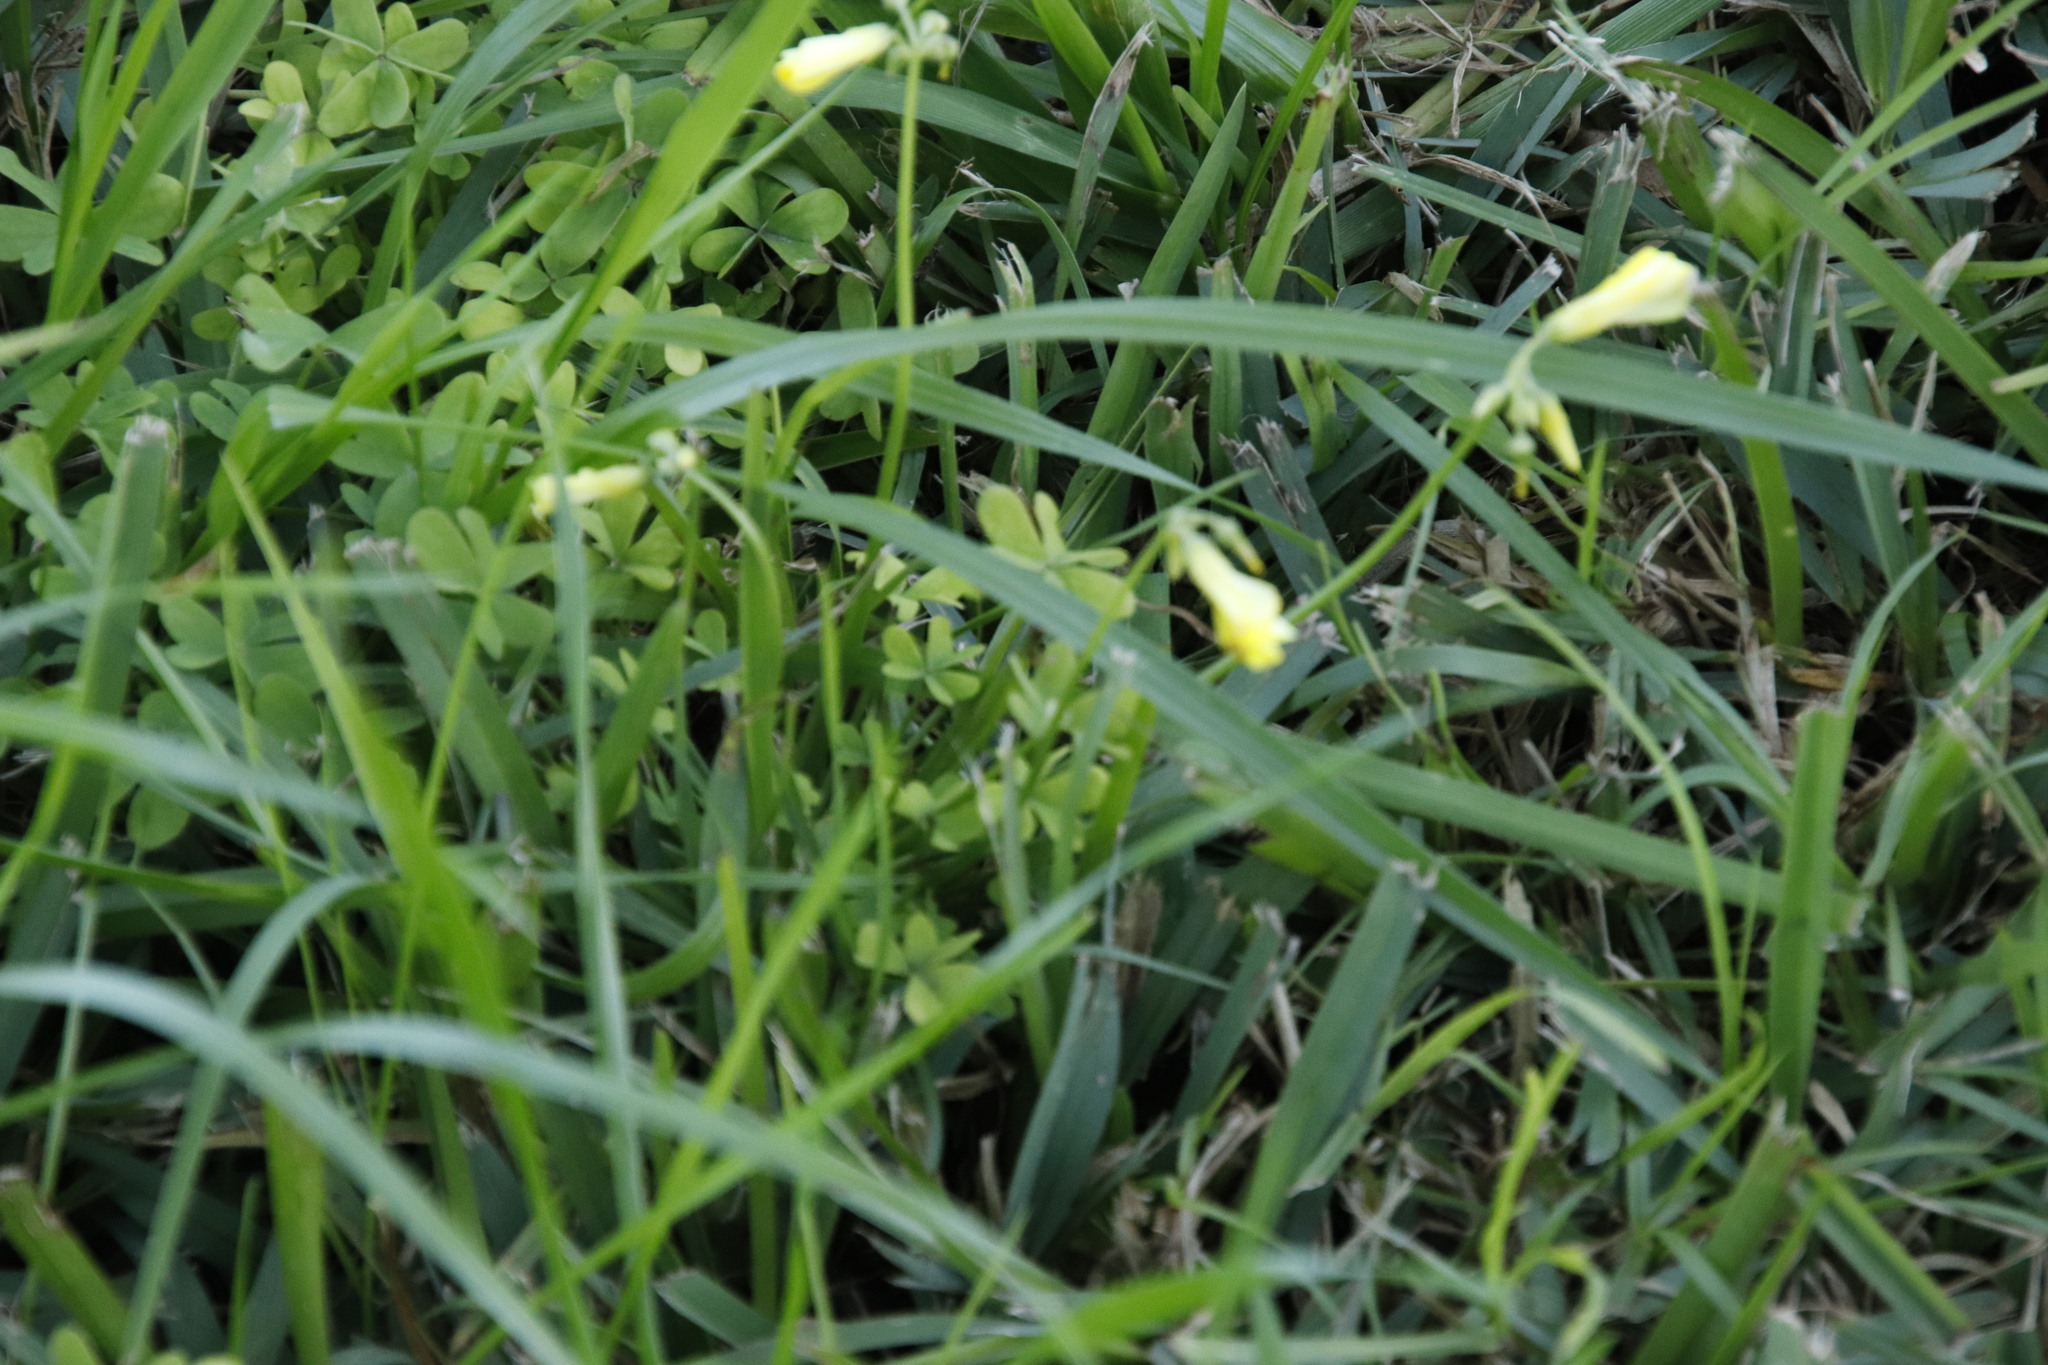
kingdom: Plantae
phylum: Tracheophyta
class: Magnoliopsida
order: Oxalidales
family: Oxalidaceae
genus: Oxalis
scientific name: Oxalis pes-caprae
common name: Bermuda-buttercup
